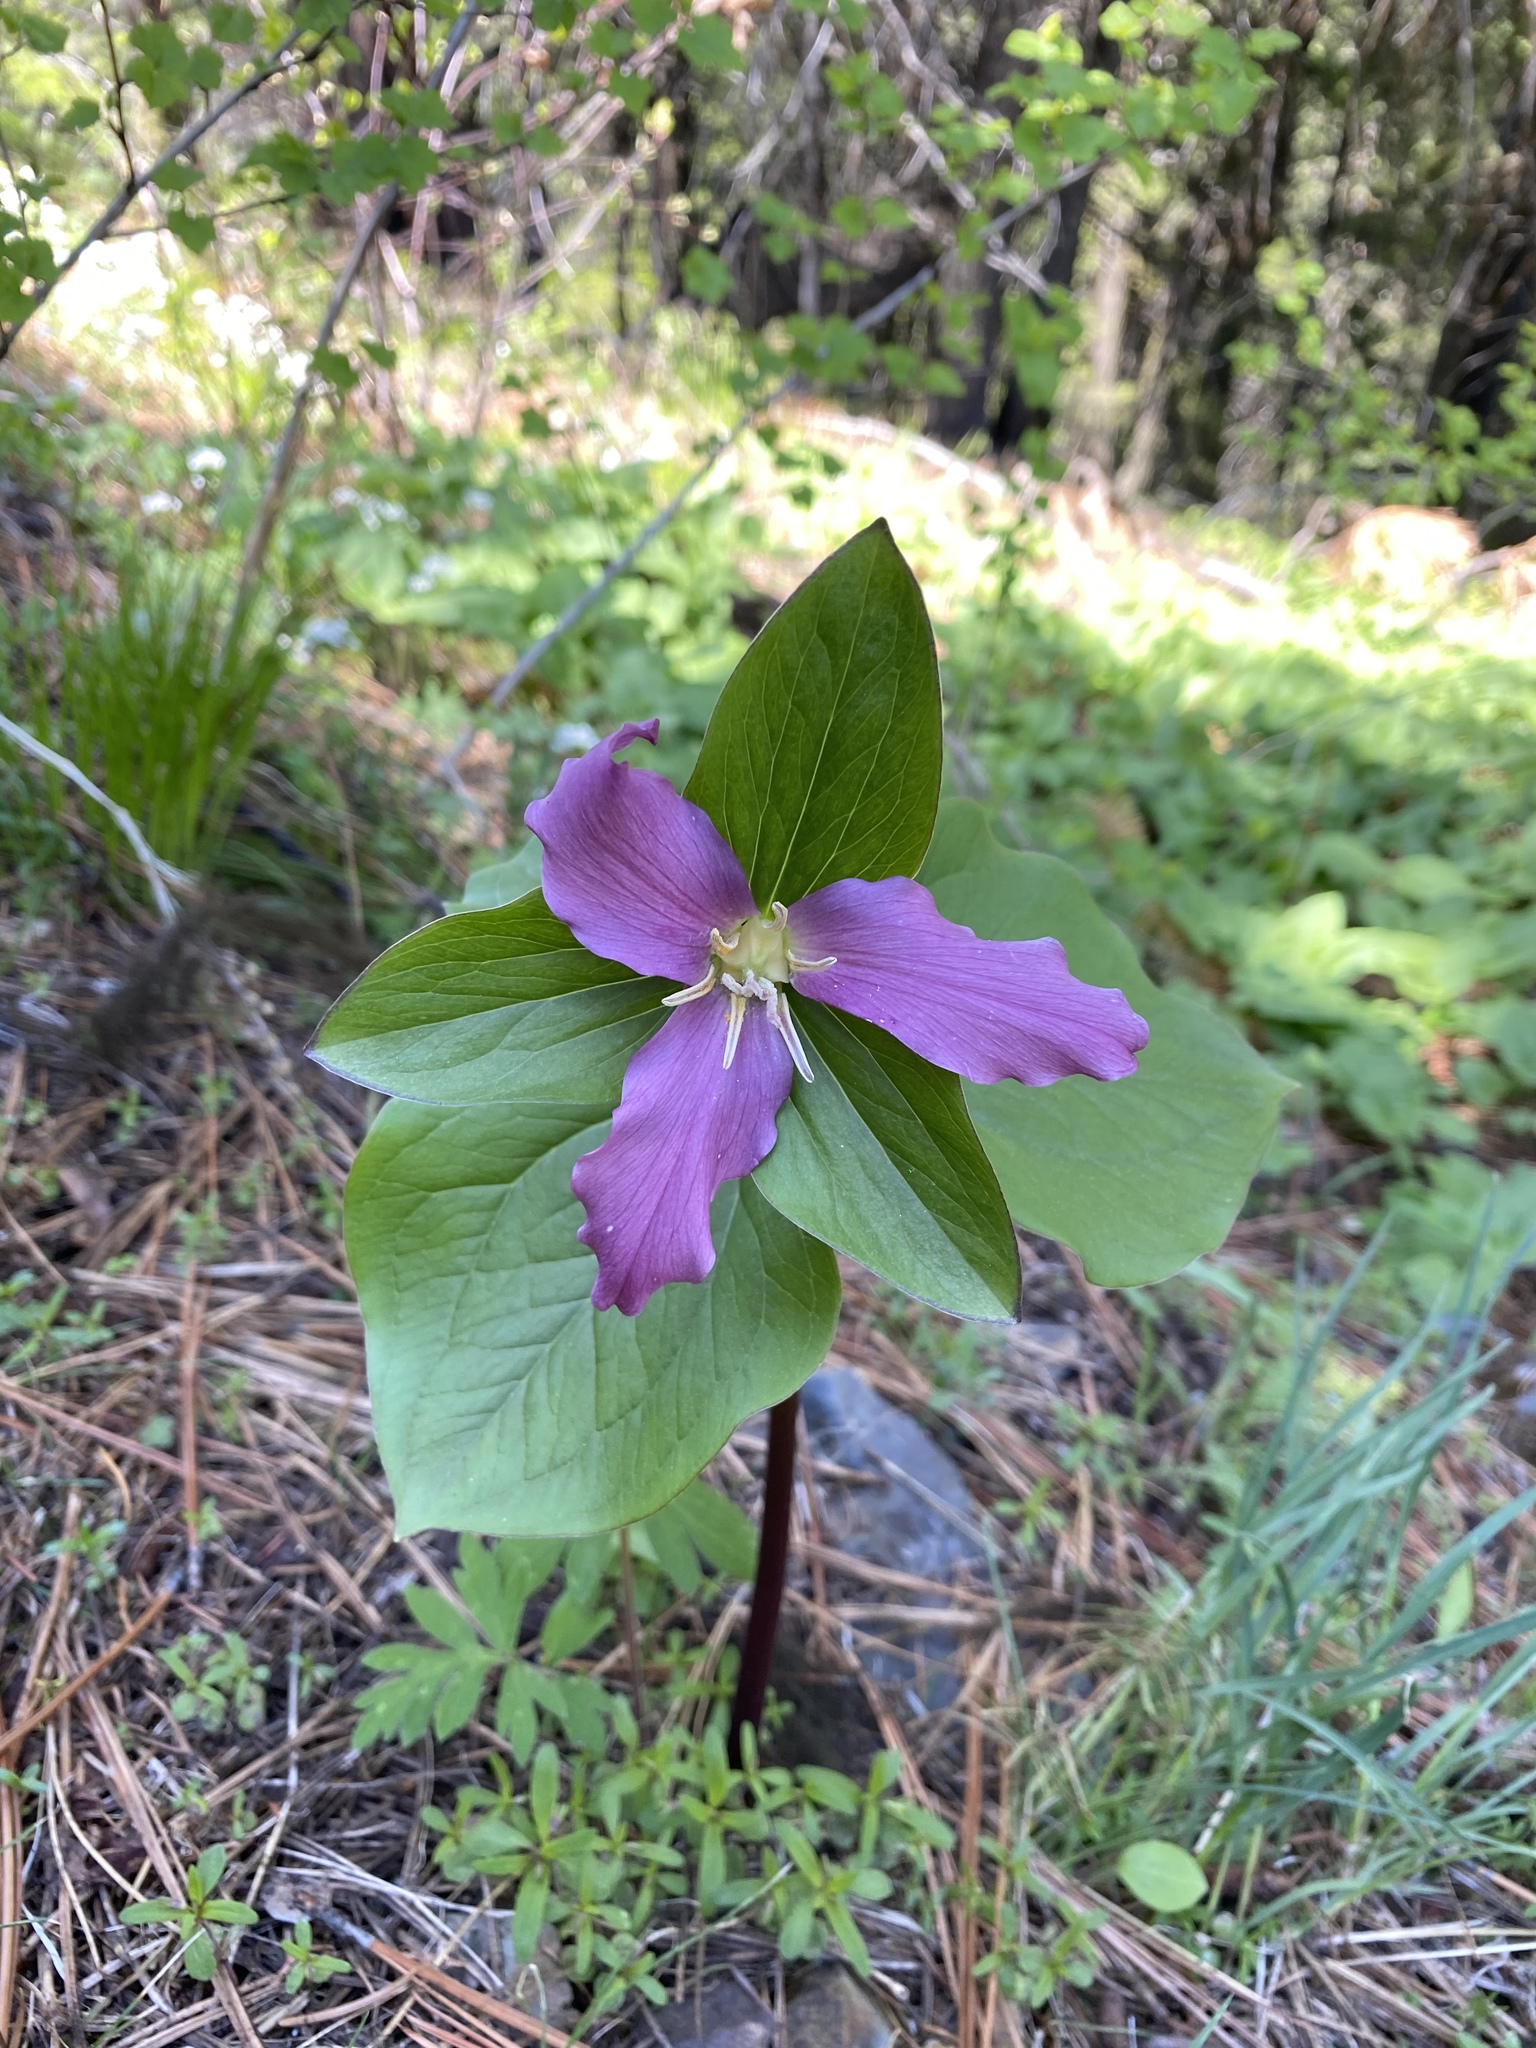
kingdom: Plantae
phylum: Tracheophyta
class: Liliopsida
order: Liliales
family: Melanthiaceae
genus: Trillium
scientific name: Trillium ovatum
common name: Pacific trillium
